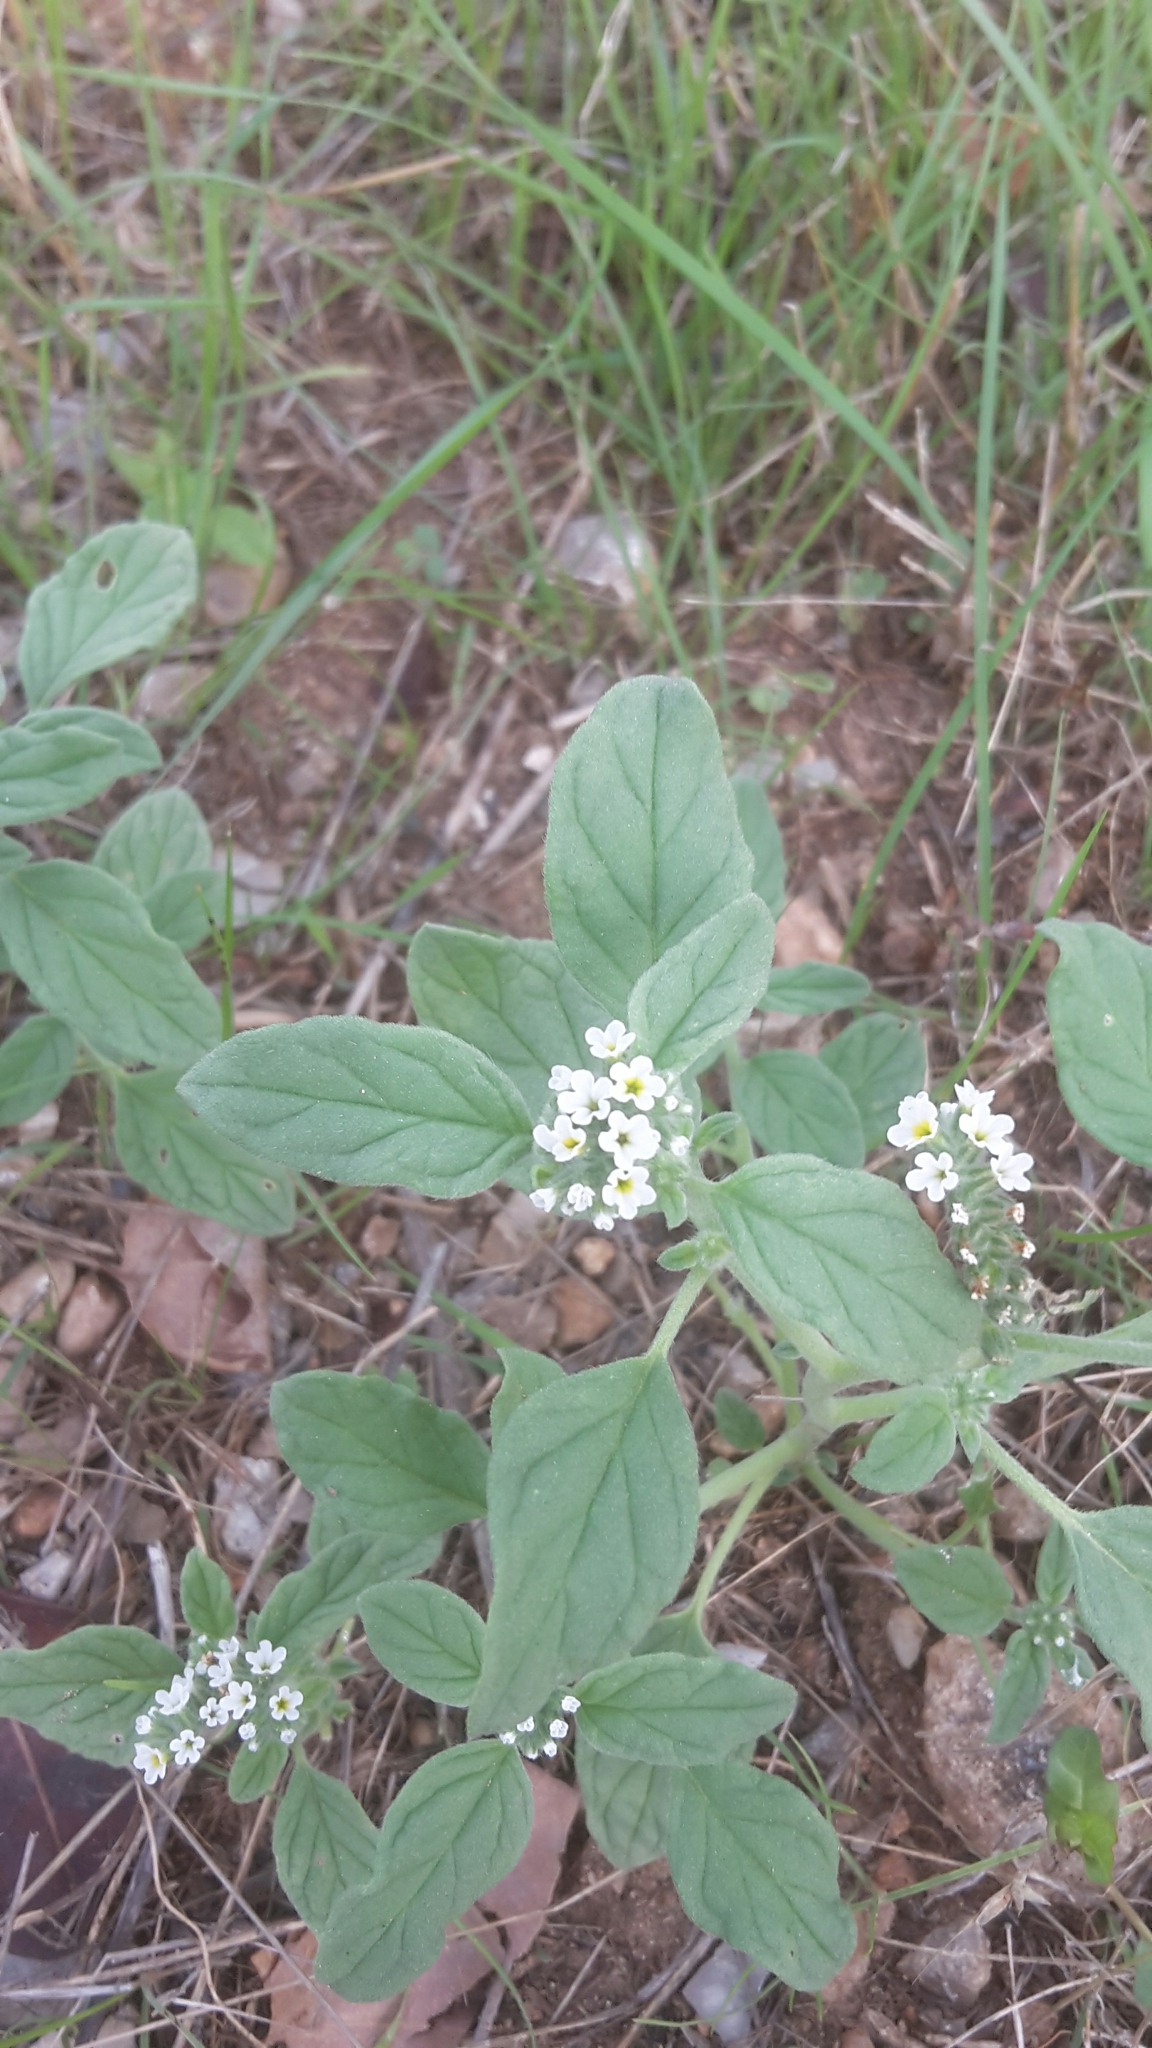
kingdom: Plantae
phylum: Tracheophyta
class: Magnoliopsida
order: Boraginales
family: Heliotropiaceae
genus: Heliotropium
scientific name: Heliotropium europaeum
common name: European heliotrope
